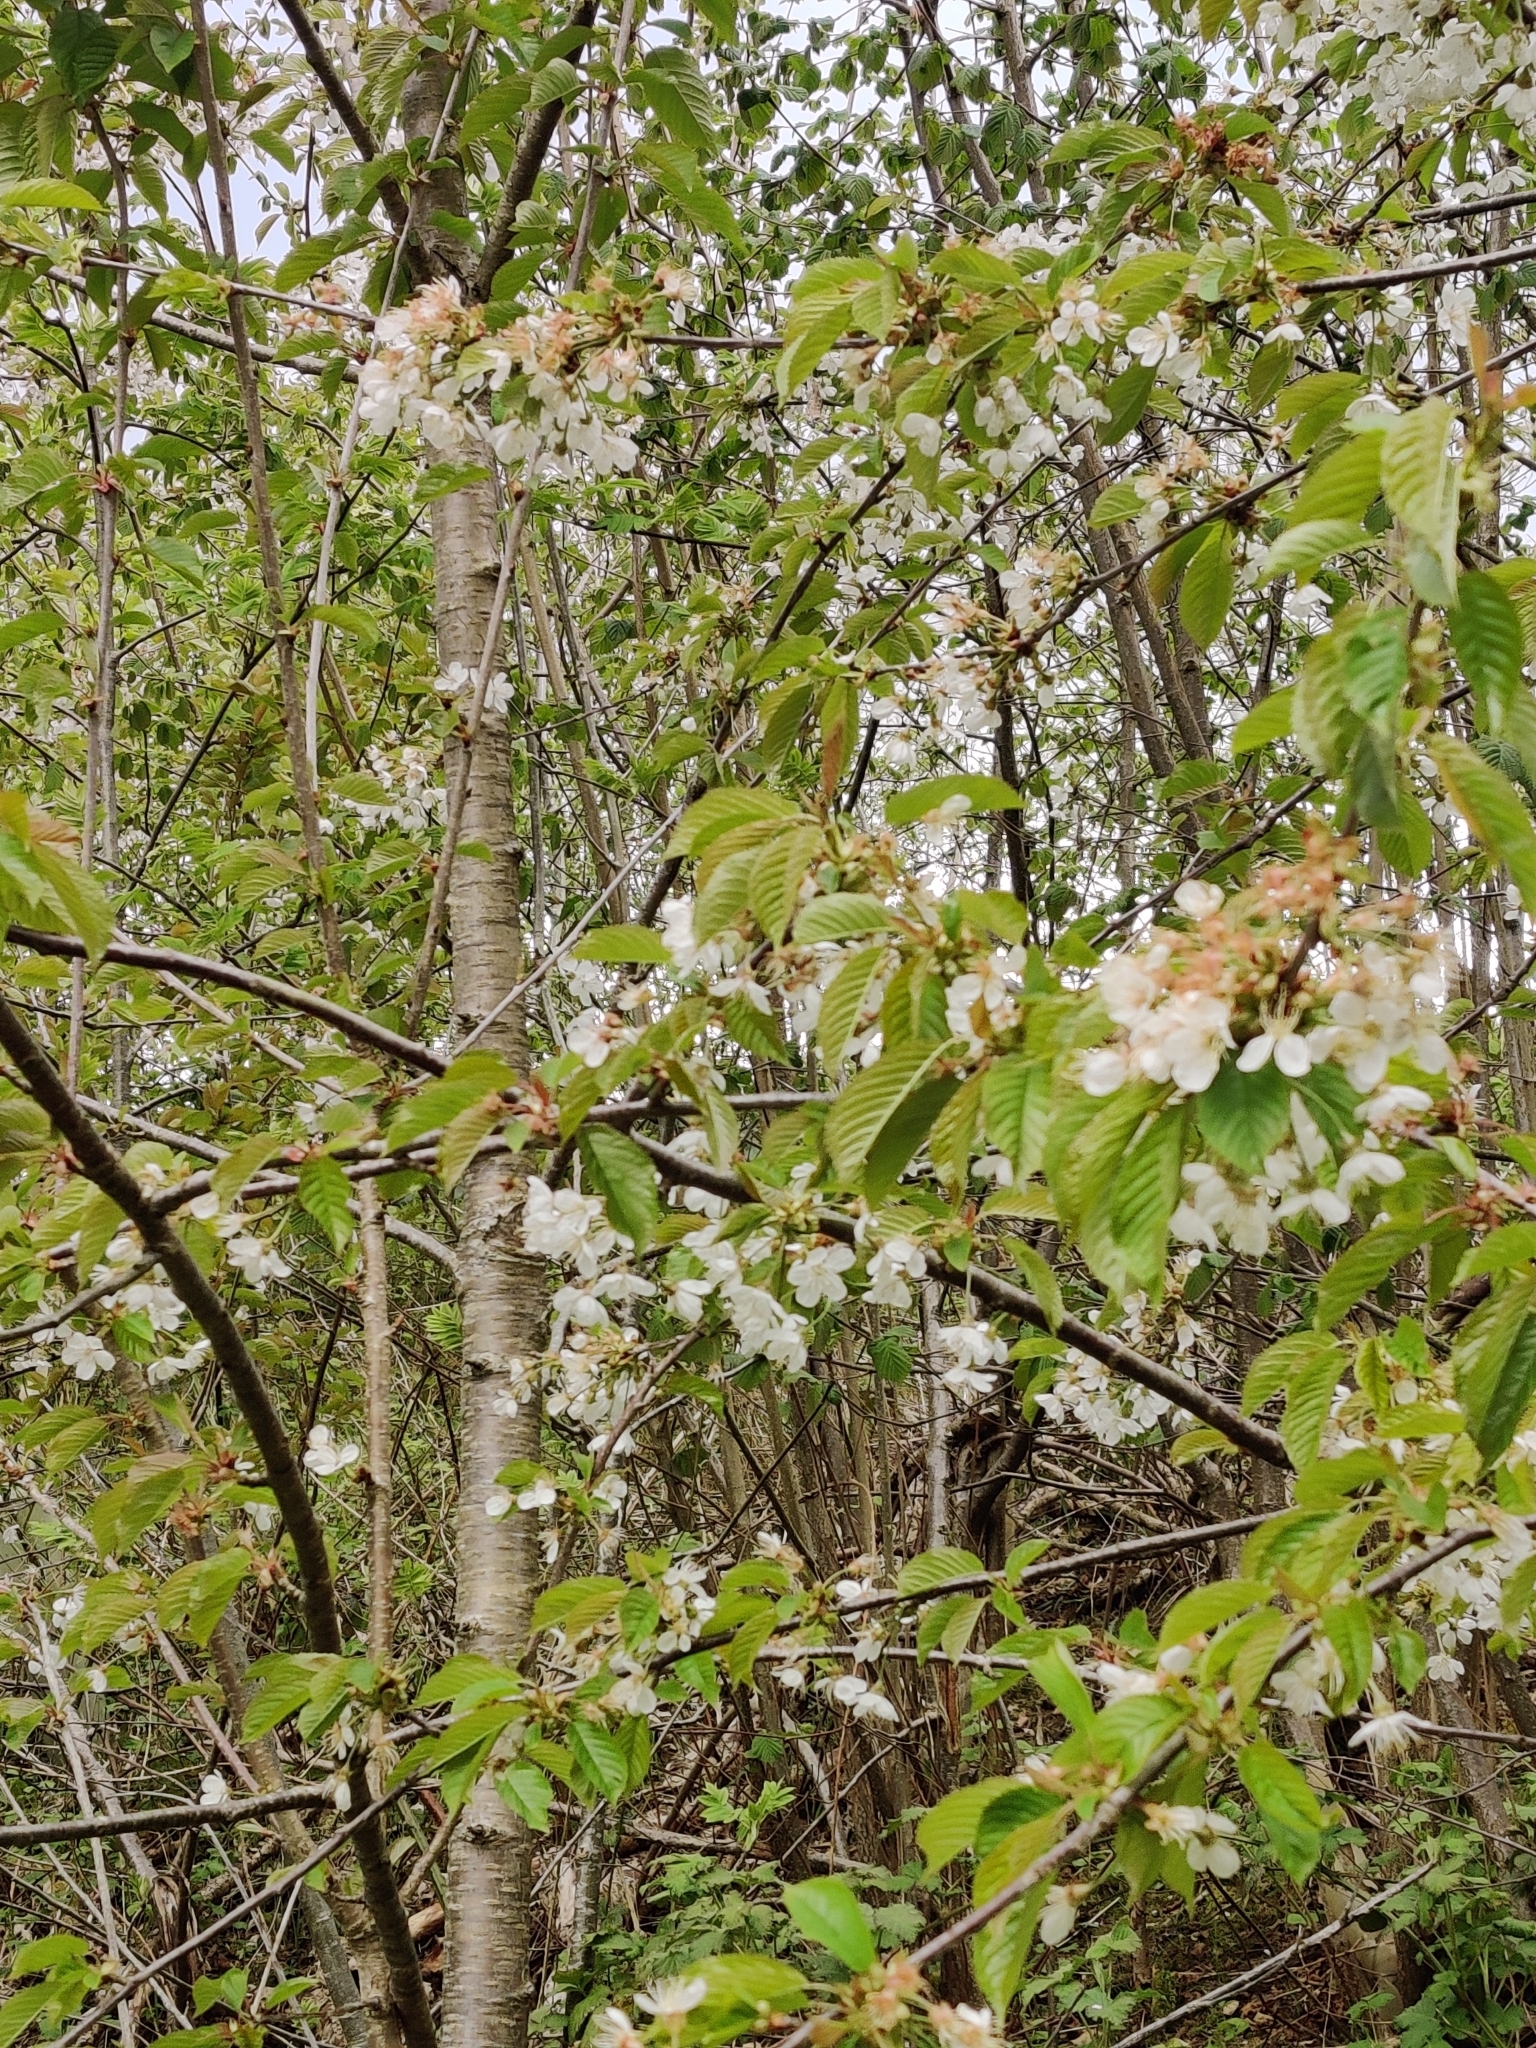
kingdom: Plantae
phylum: Tracheophyta
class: Magnoliopsida
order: Rosales
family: Rosaceae
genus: Prunus
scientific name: Prunus avium
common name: Sweet cherry
